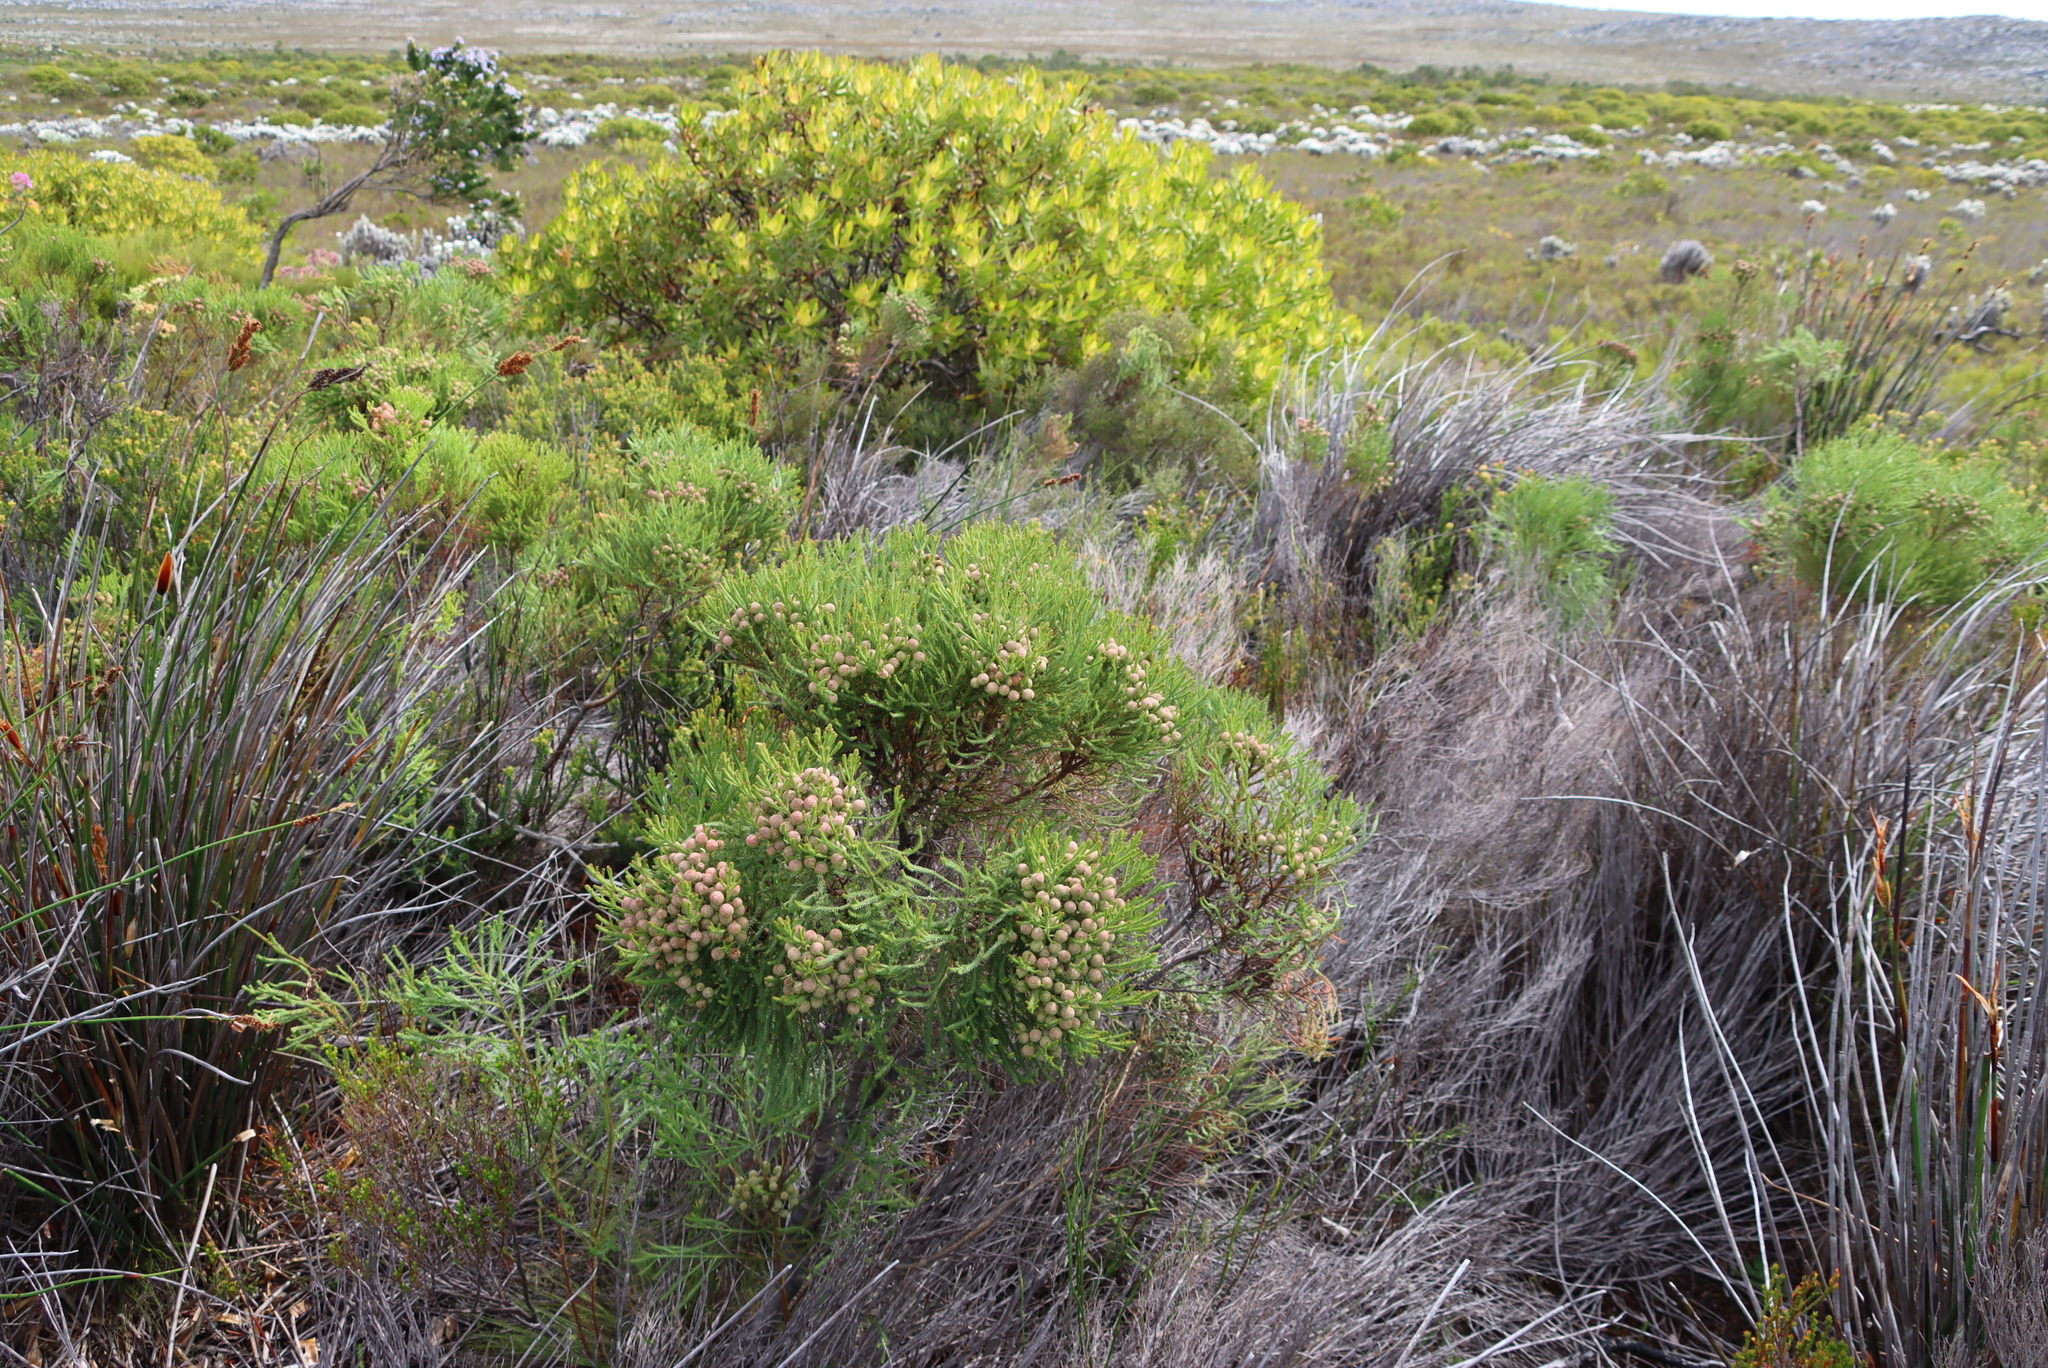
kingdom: Plantae
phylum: Tracheophyta
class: Magnoliopsida
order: Bruniales
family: Bruniaceae
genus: Berzelia
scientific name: Berzelia lanuginosa
